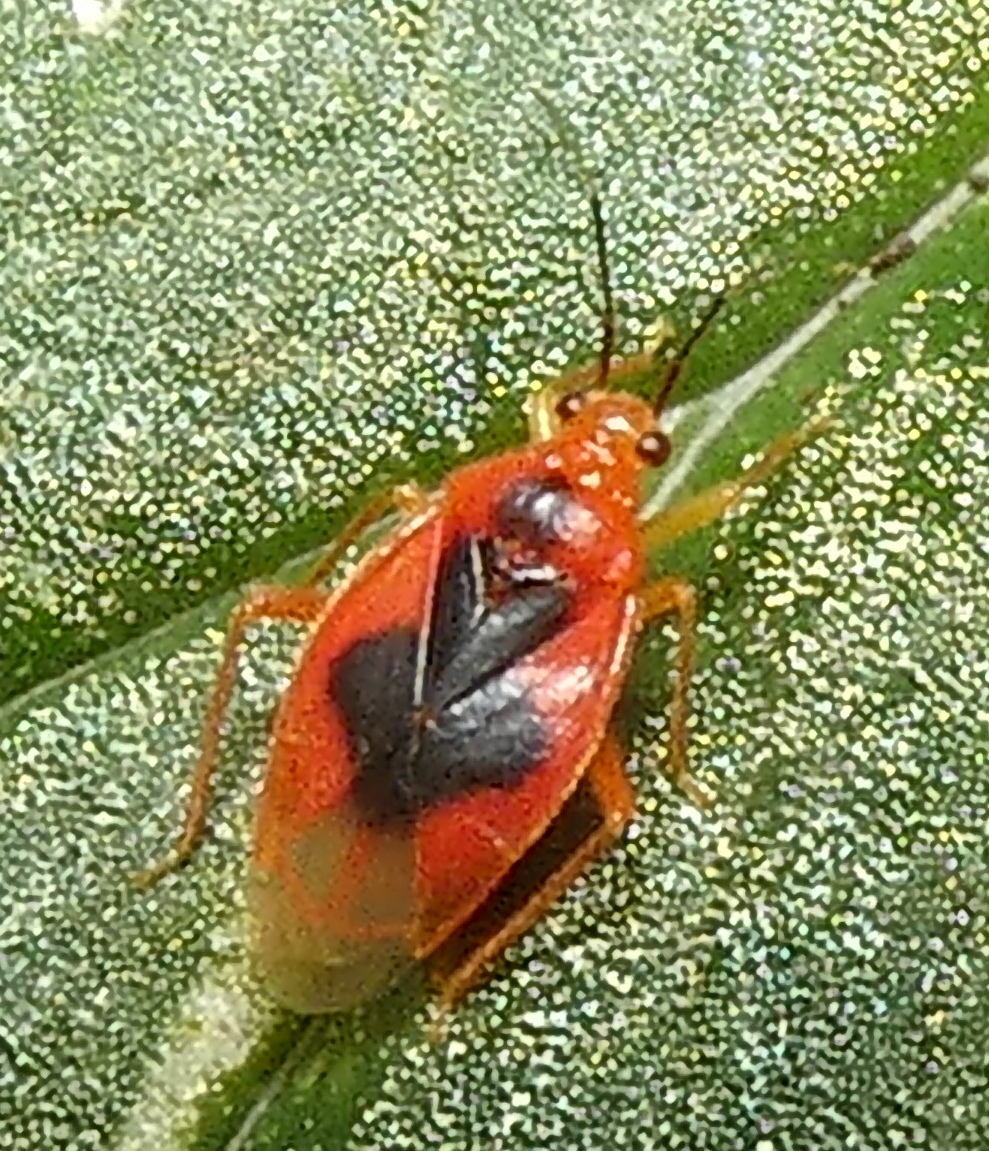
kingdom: Animalia
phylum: Arthropoda
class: Insecta
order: Hemiptera
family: Miridae
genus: Parafurius
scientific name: Parafurius discifer
